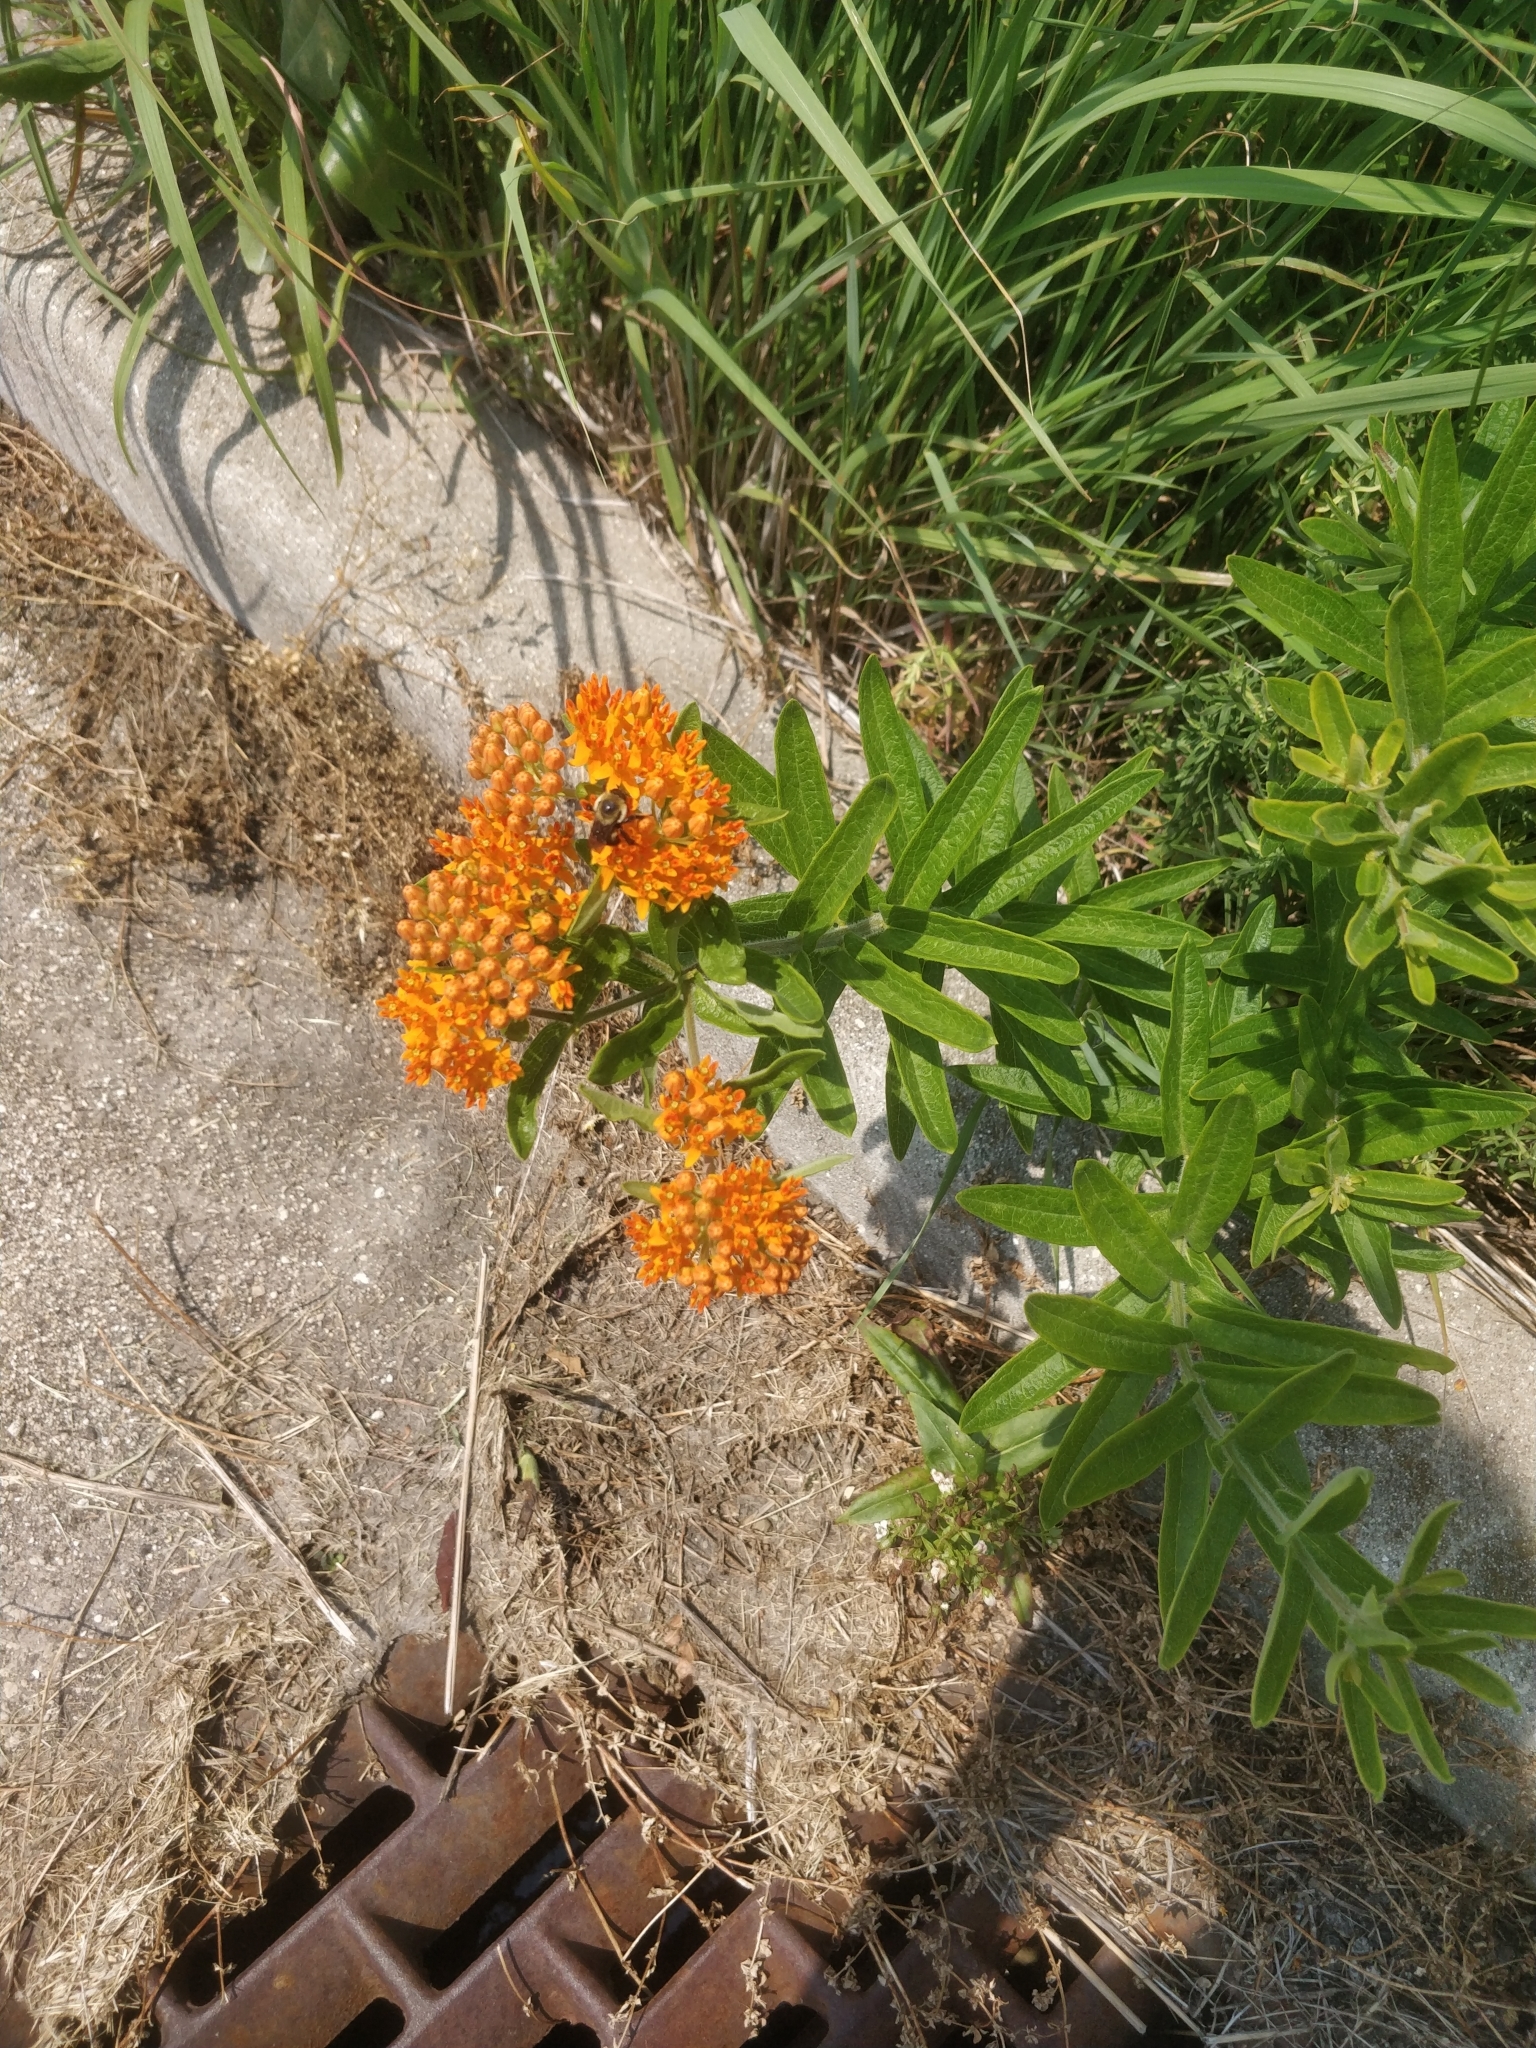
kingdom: Plantae
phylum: Tracheophyta
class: Magnoliopsida
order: Gentianales
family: Apocynaceae
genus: Asclepias
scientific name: Asclepias tuberosa
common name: Butterfly milkweed
